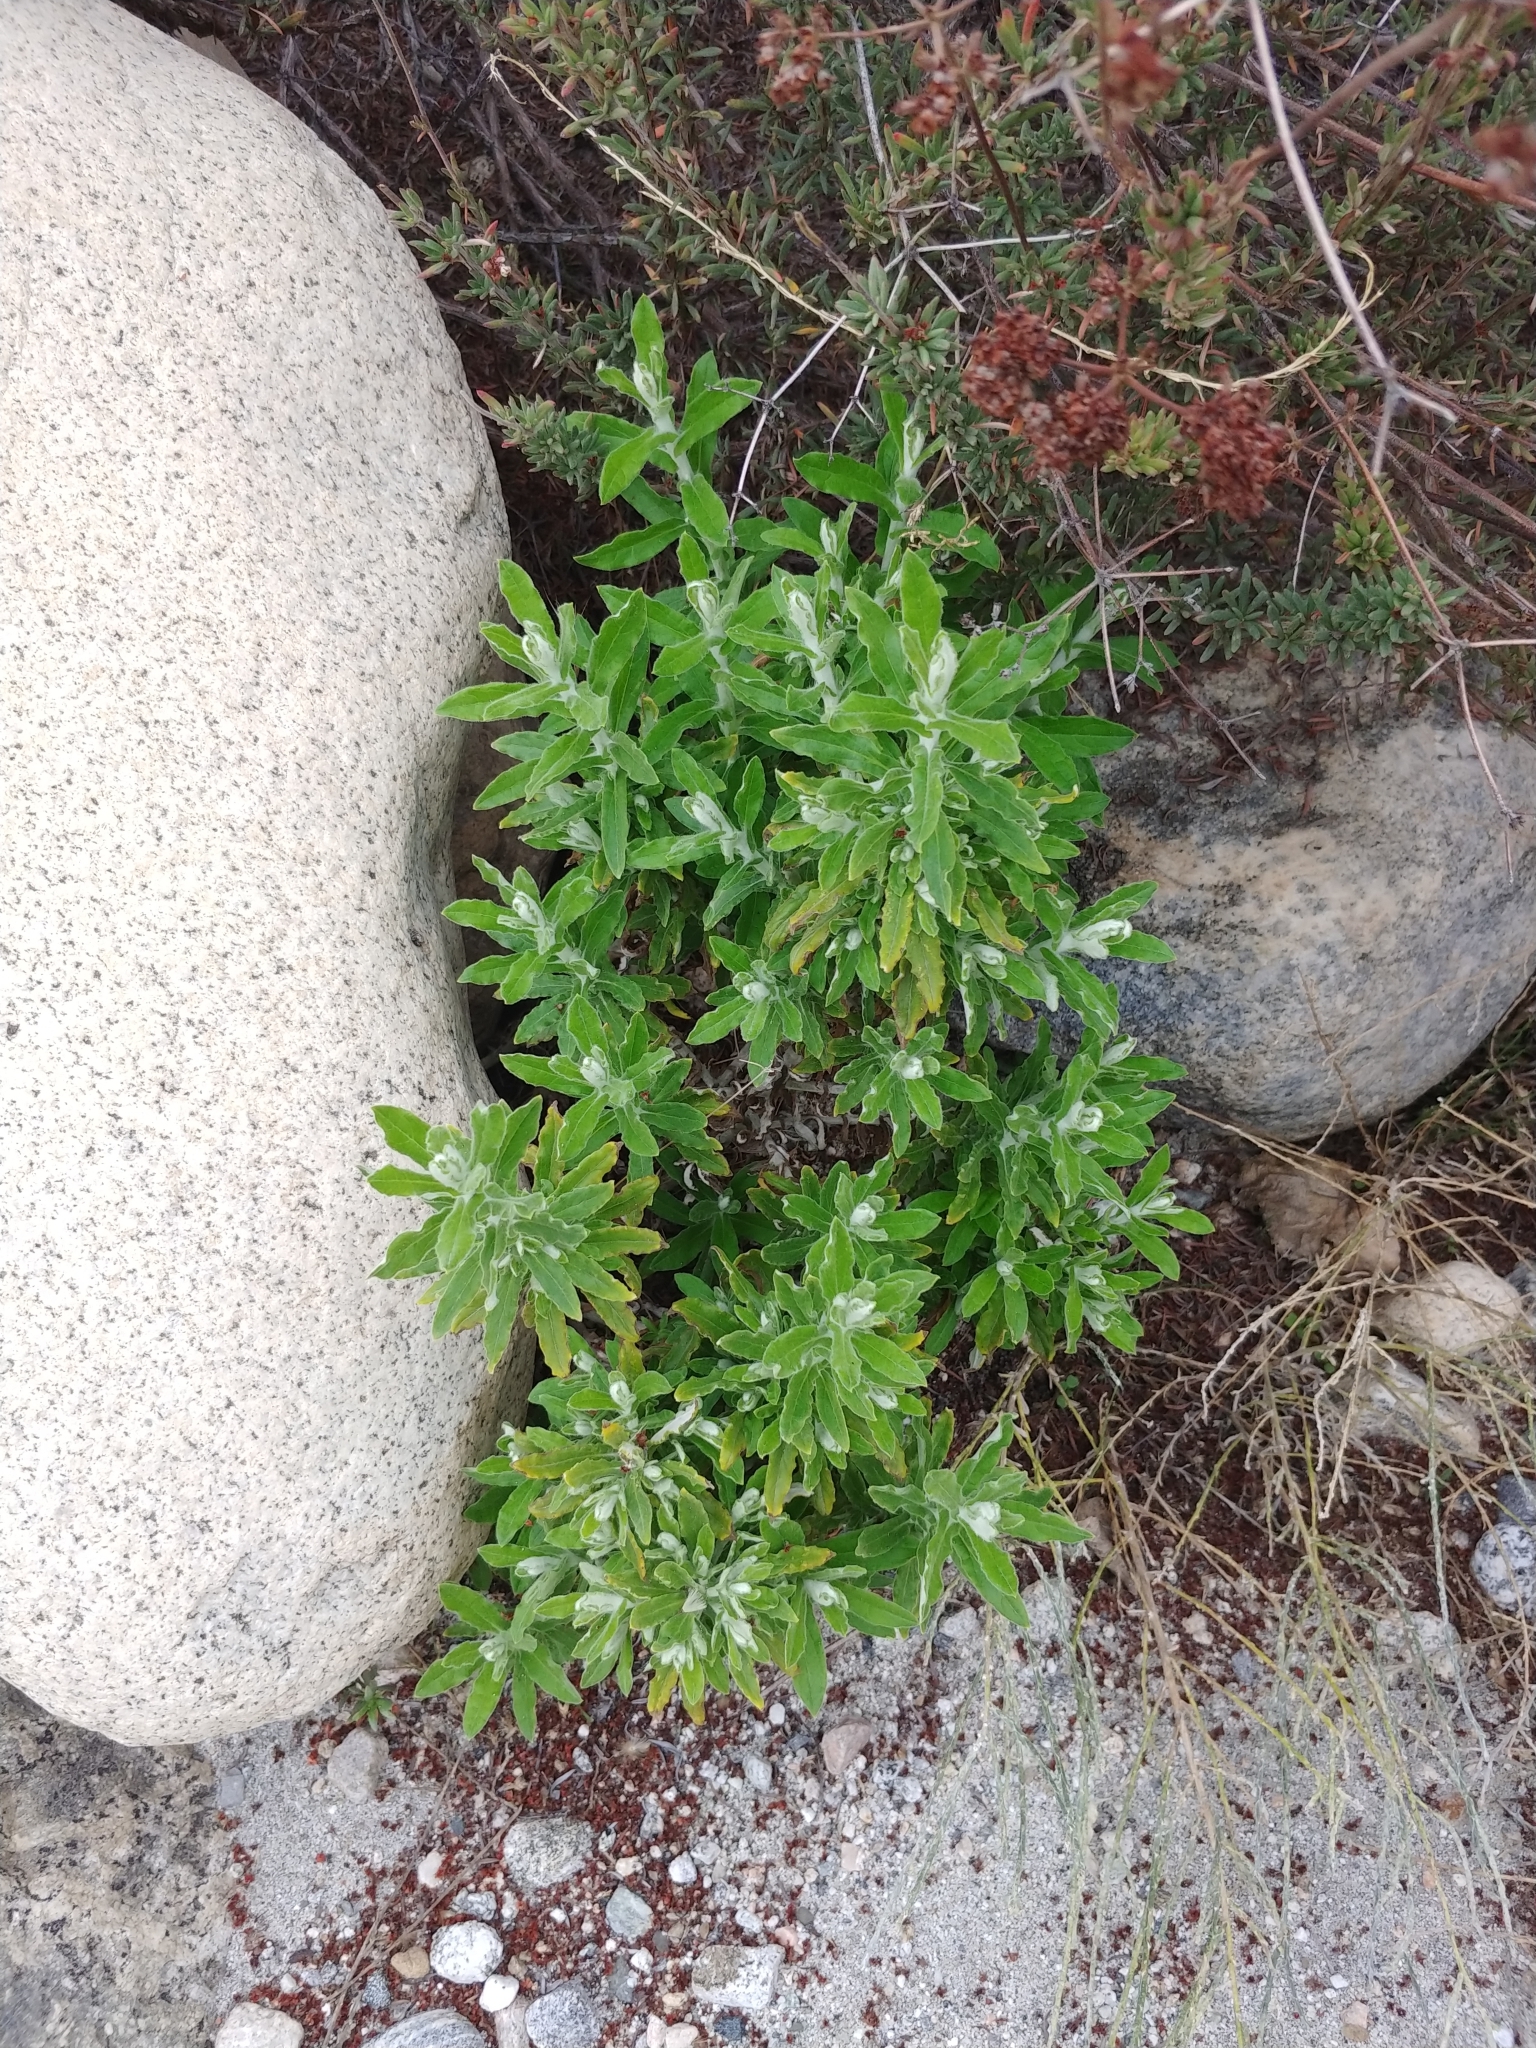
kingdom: Plantae
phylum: Tracheophyta
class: Magnoliopsida
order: Asterales
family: Asteraceae
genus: Pseudognaphalium
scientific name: Pseudognaphalium biolettii
